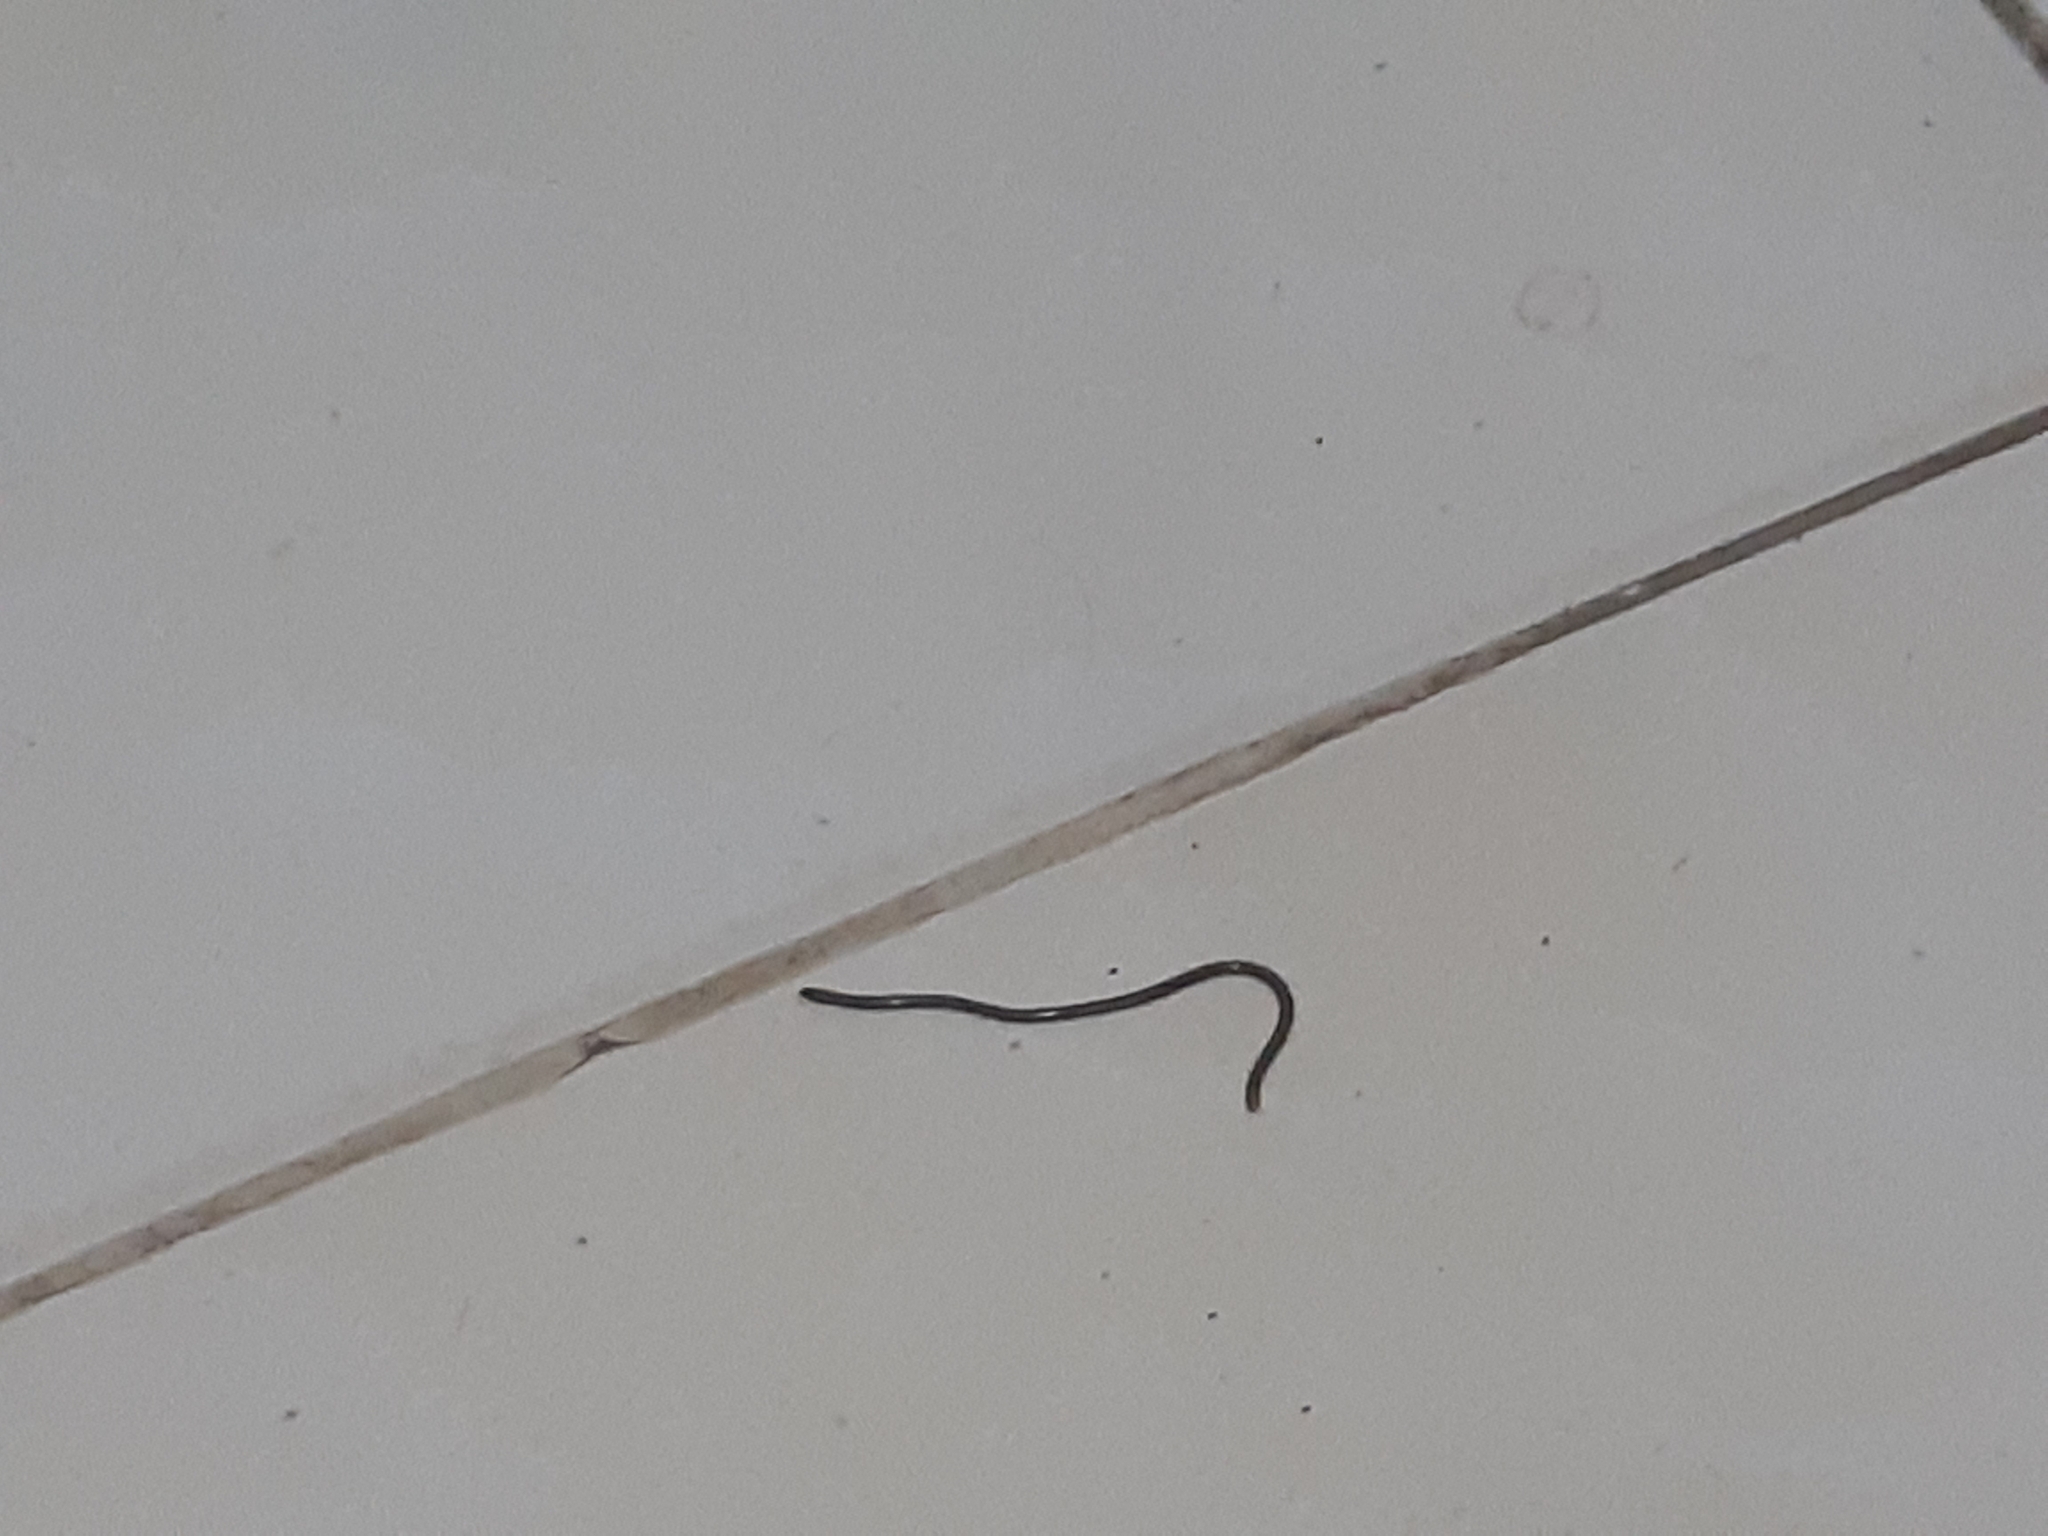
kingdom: Animalia
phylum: Chordata
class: Squamata
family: Typhlopidae
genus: Indotyphlops
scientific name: Indotyphlops braminus
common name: Brahminy blindsnake
